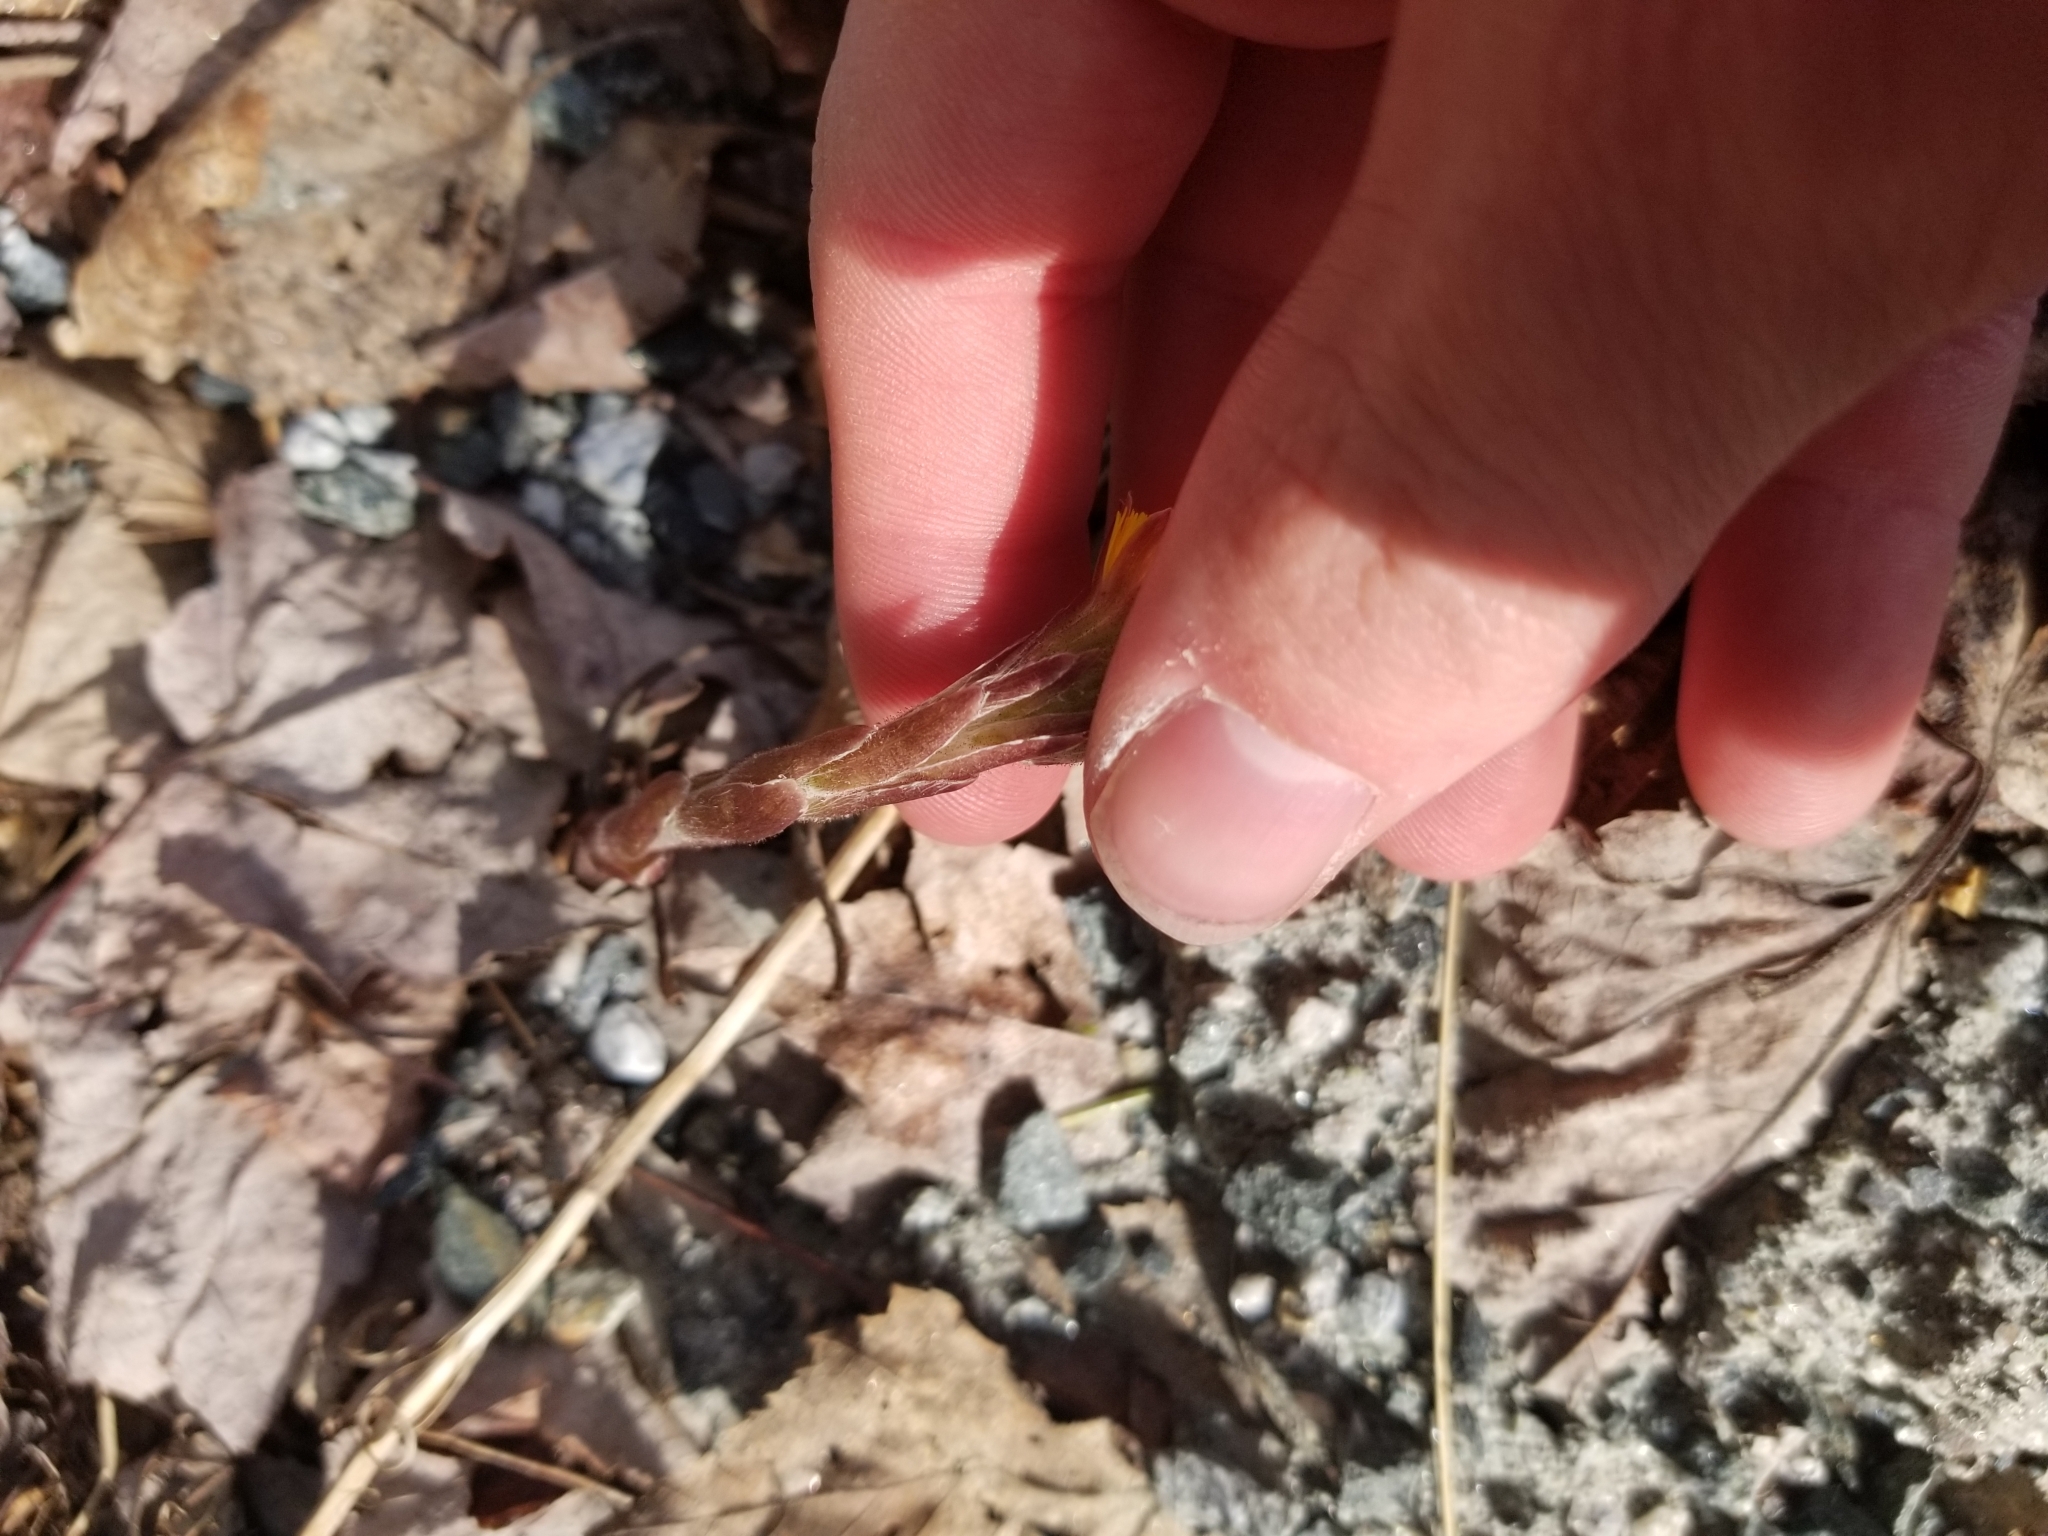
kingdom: Plantae
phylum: Tracheophyta
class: Magnoliopsida
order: Asterales
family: Asteraceae
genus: Tussilago
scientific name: Tussilago farfara
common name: Coltsfoot
